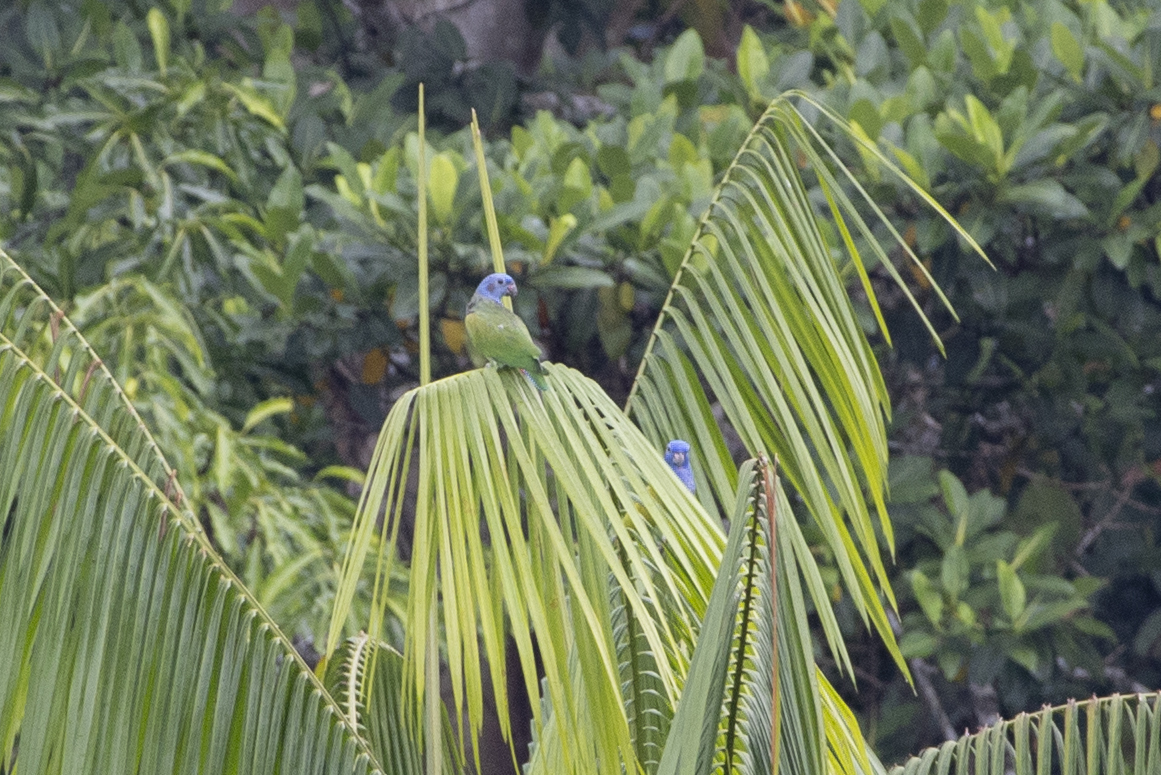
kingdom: Animalia
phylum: Chordata
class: Aves
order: Psittaciformes
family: Psittacidae
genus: Pionus
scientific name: Pionus menstruus
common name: Blue-headed parrot
